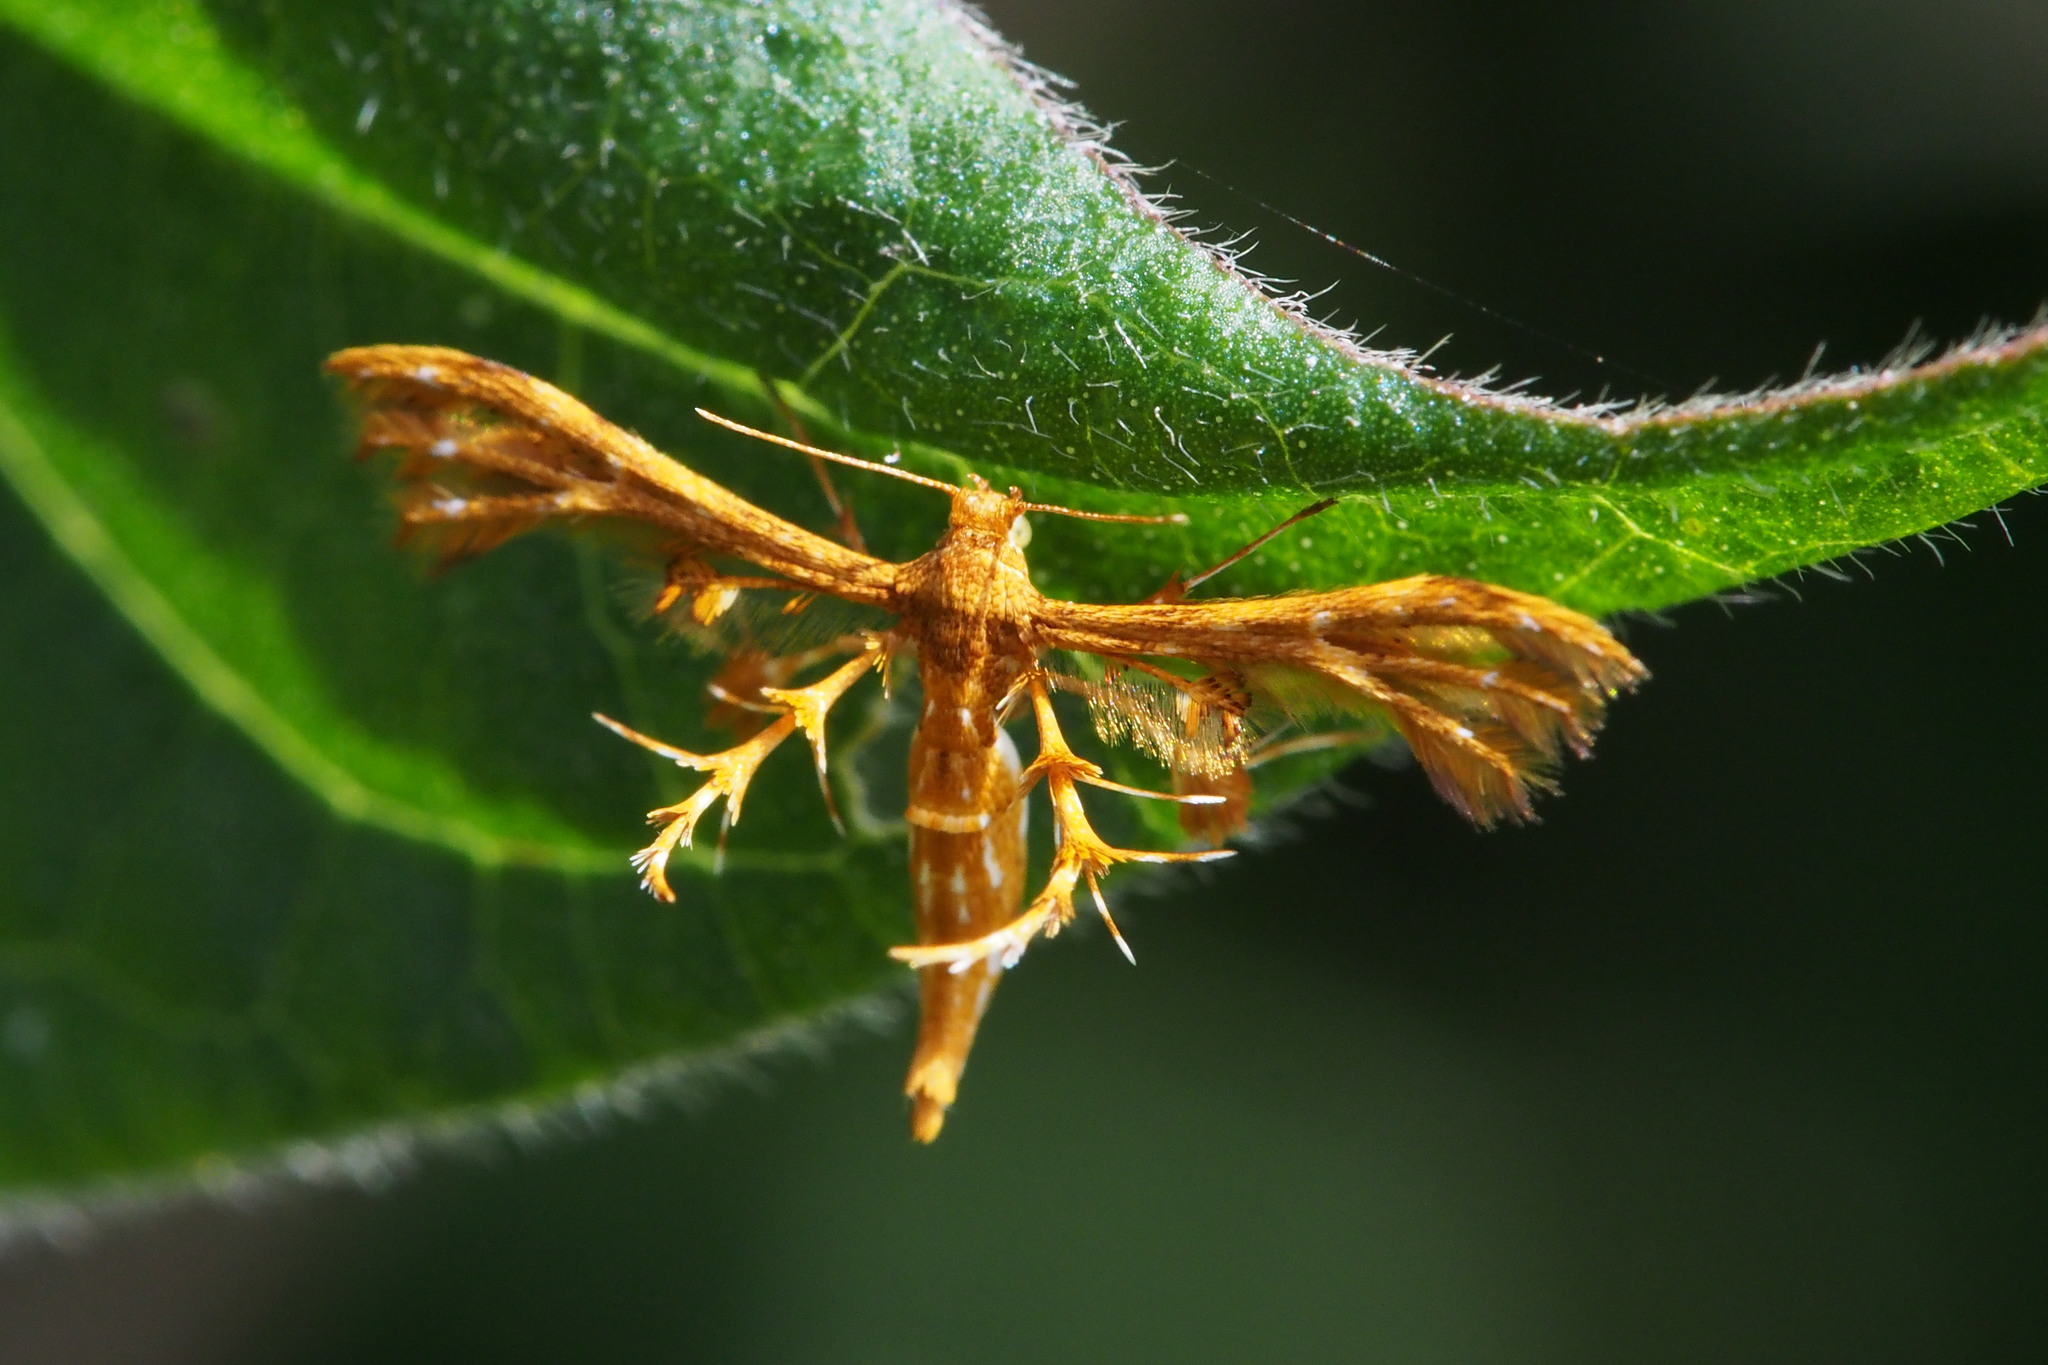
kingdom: Animalia
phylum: Arthropoda
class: Insecta
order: Lepidoptera
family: Pterophoridae
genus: Deuterocopus
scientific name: Deuterocopus albipunctatus
